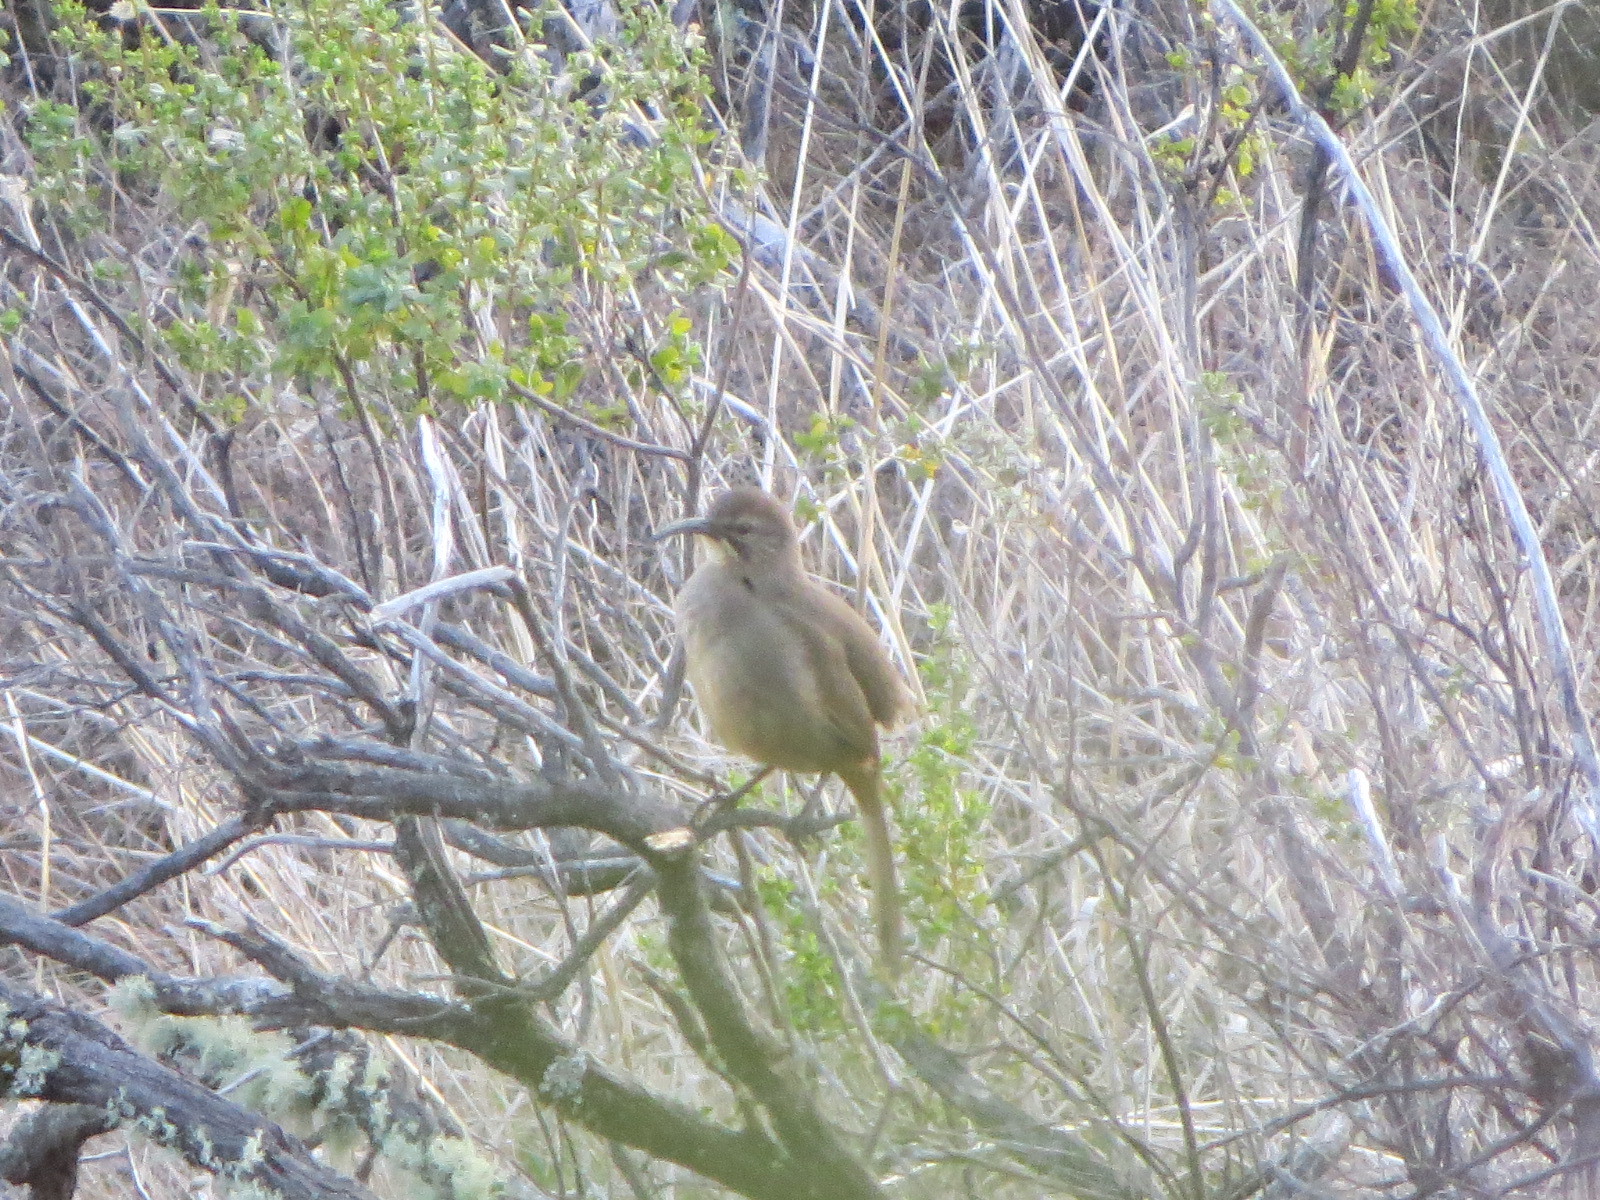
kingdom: Animalia
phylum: Chordata
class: Aves
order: Passeriformes
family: Mimidae
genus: Toxostoma
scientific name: Toxostoma redivivum
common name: California thrasher
